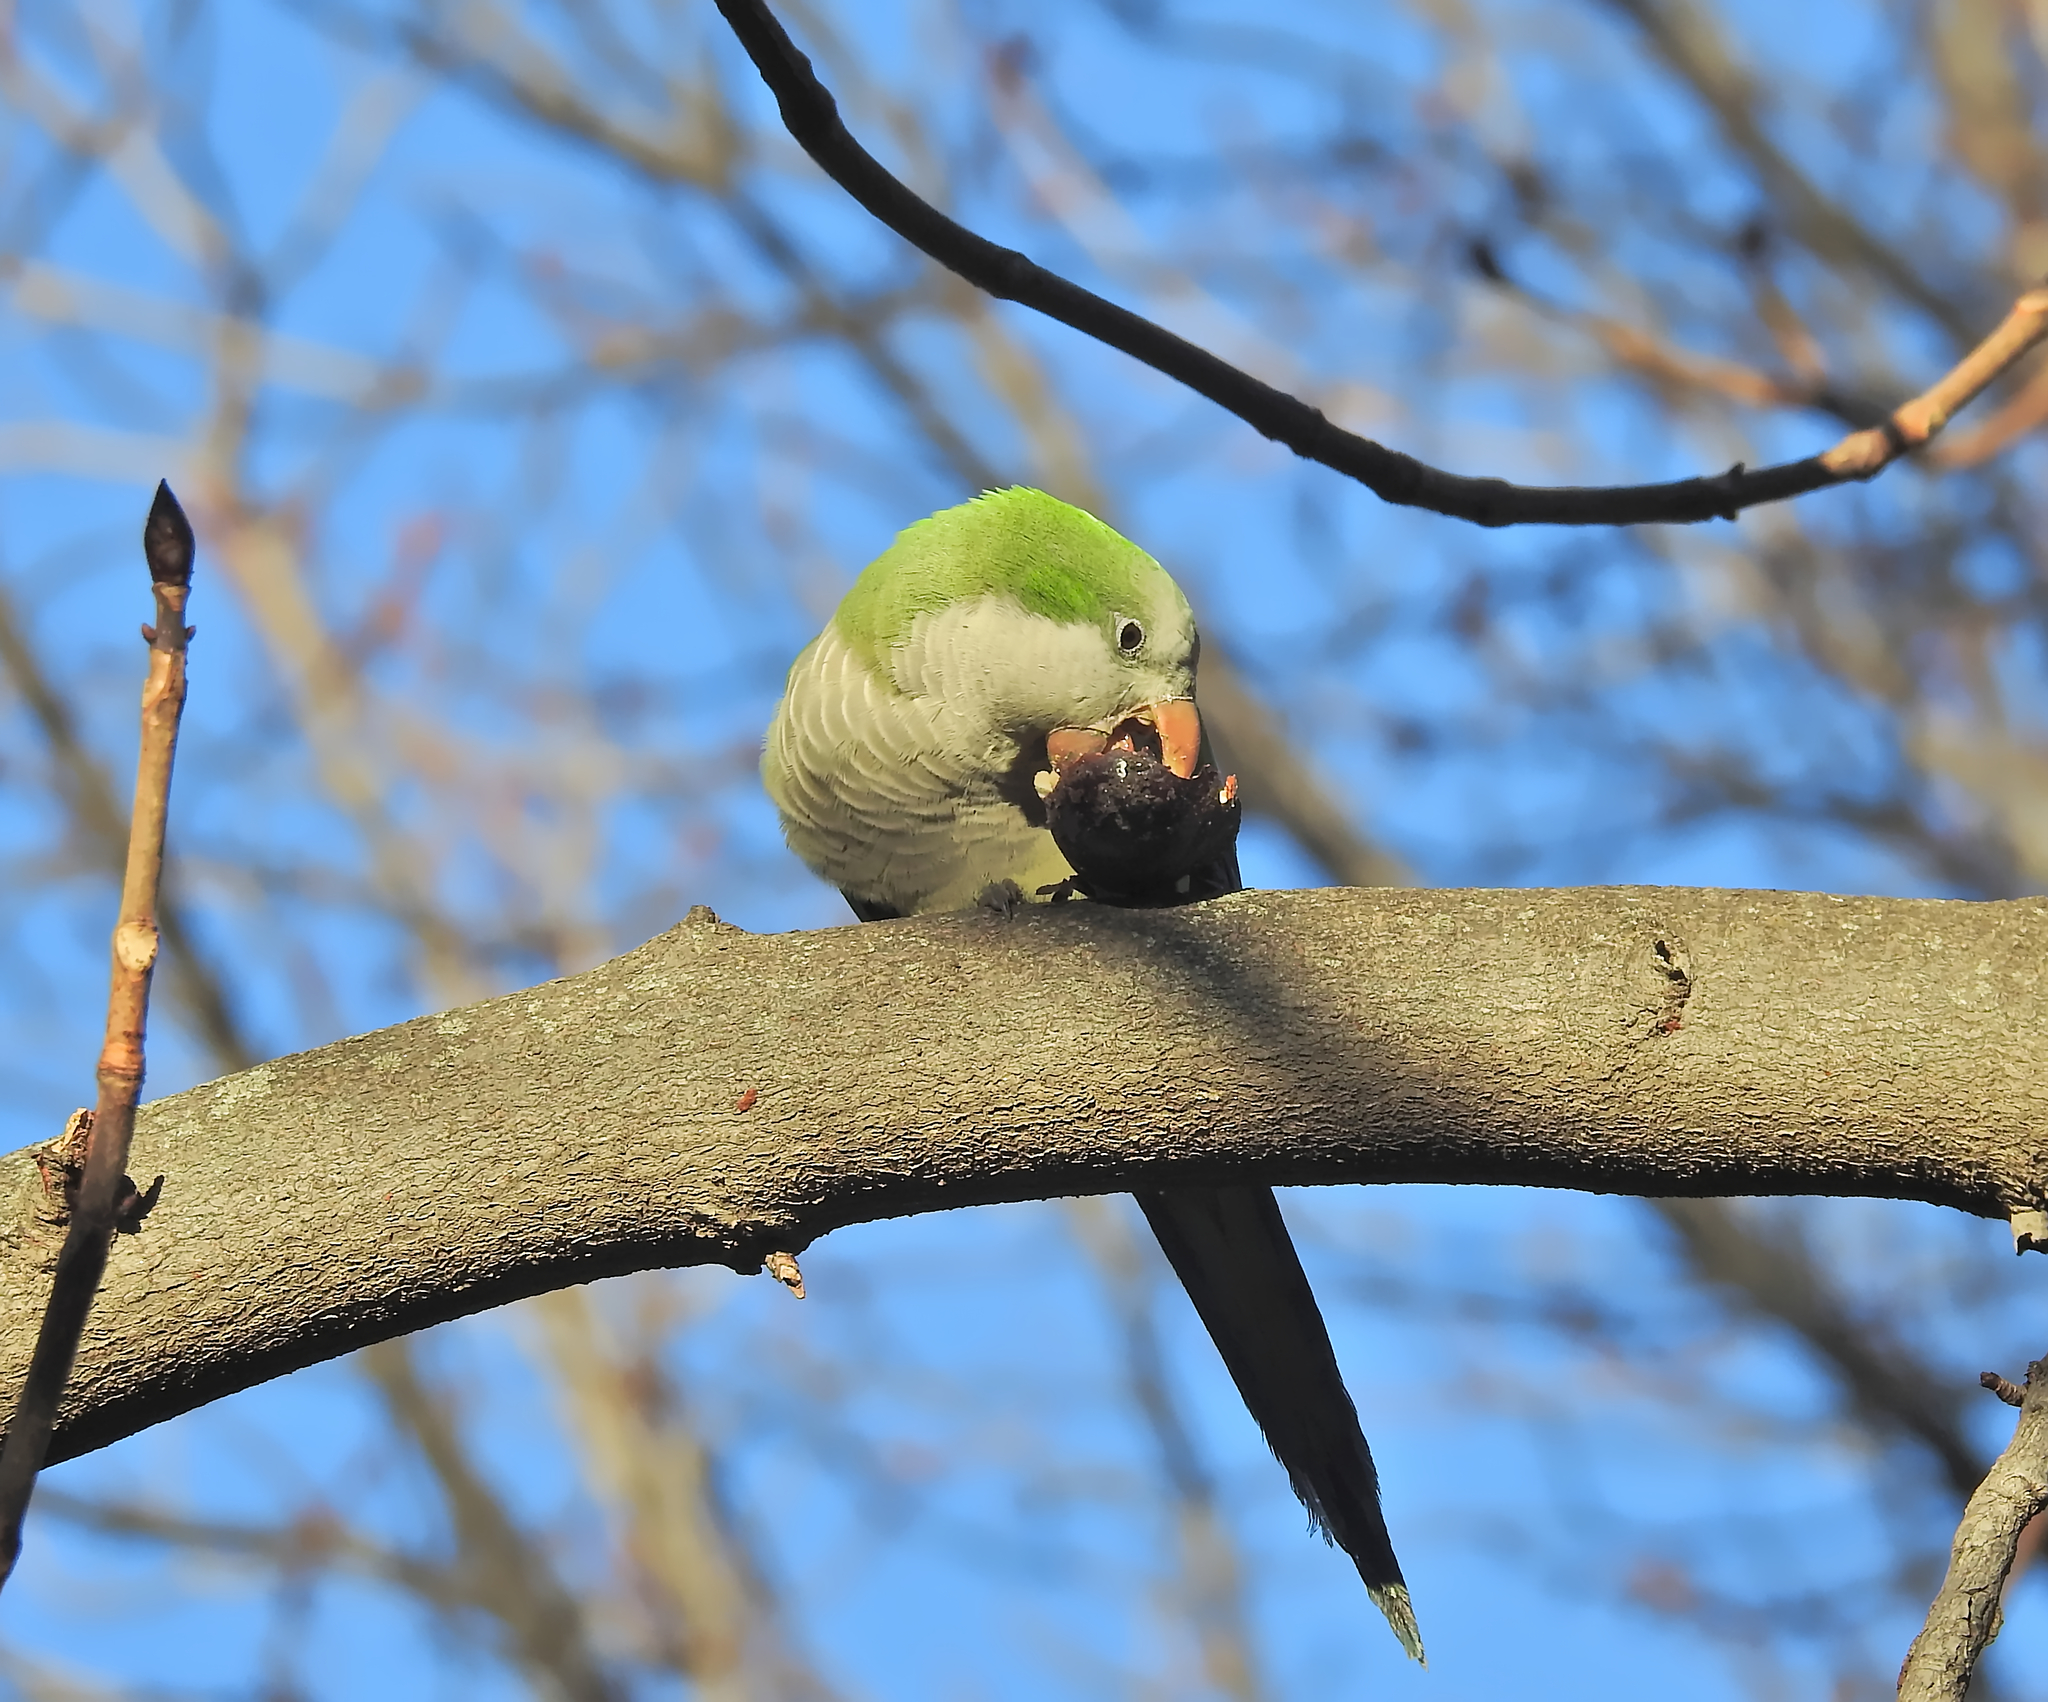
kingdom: Animalia
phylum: Chordata
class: Aves
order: Psittaciformes
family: Psittacidae
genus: Myiopsitta
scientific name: Myiopsitta monachus
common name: Monk parakeet
